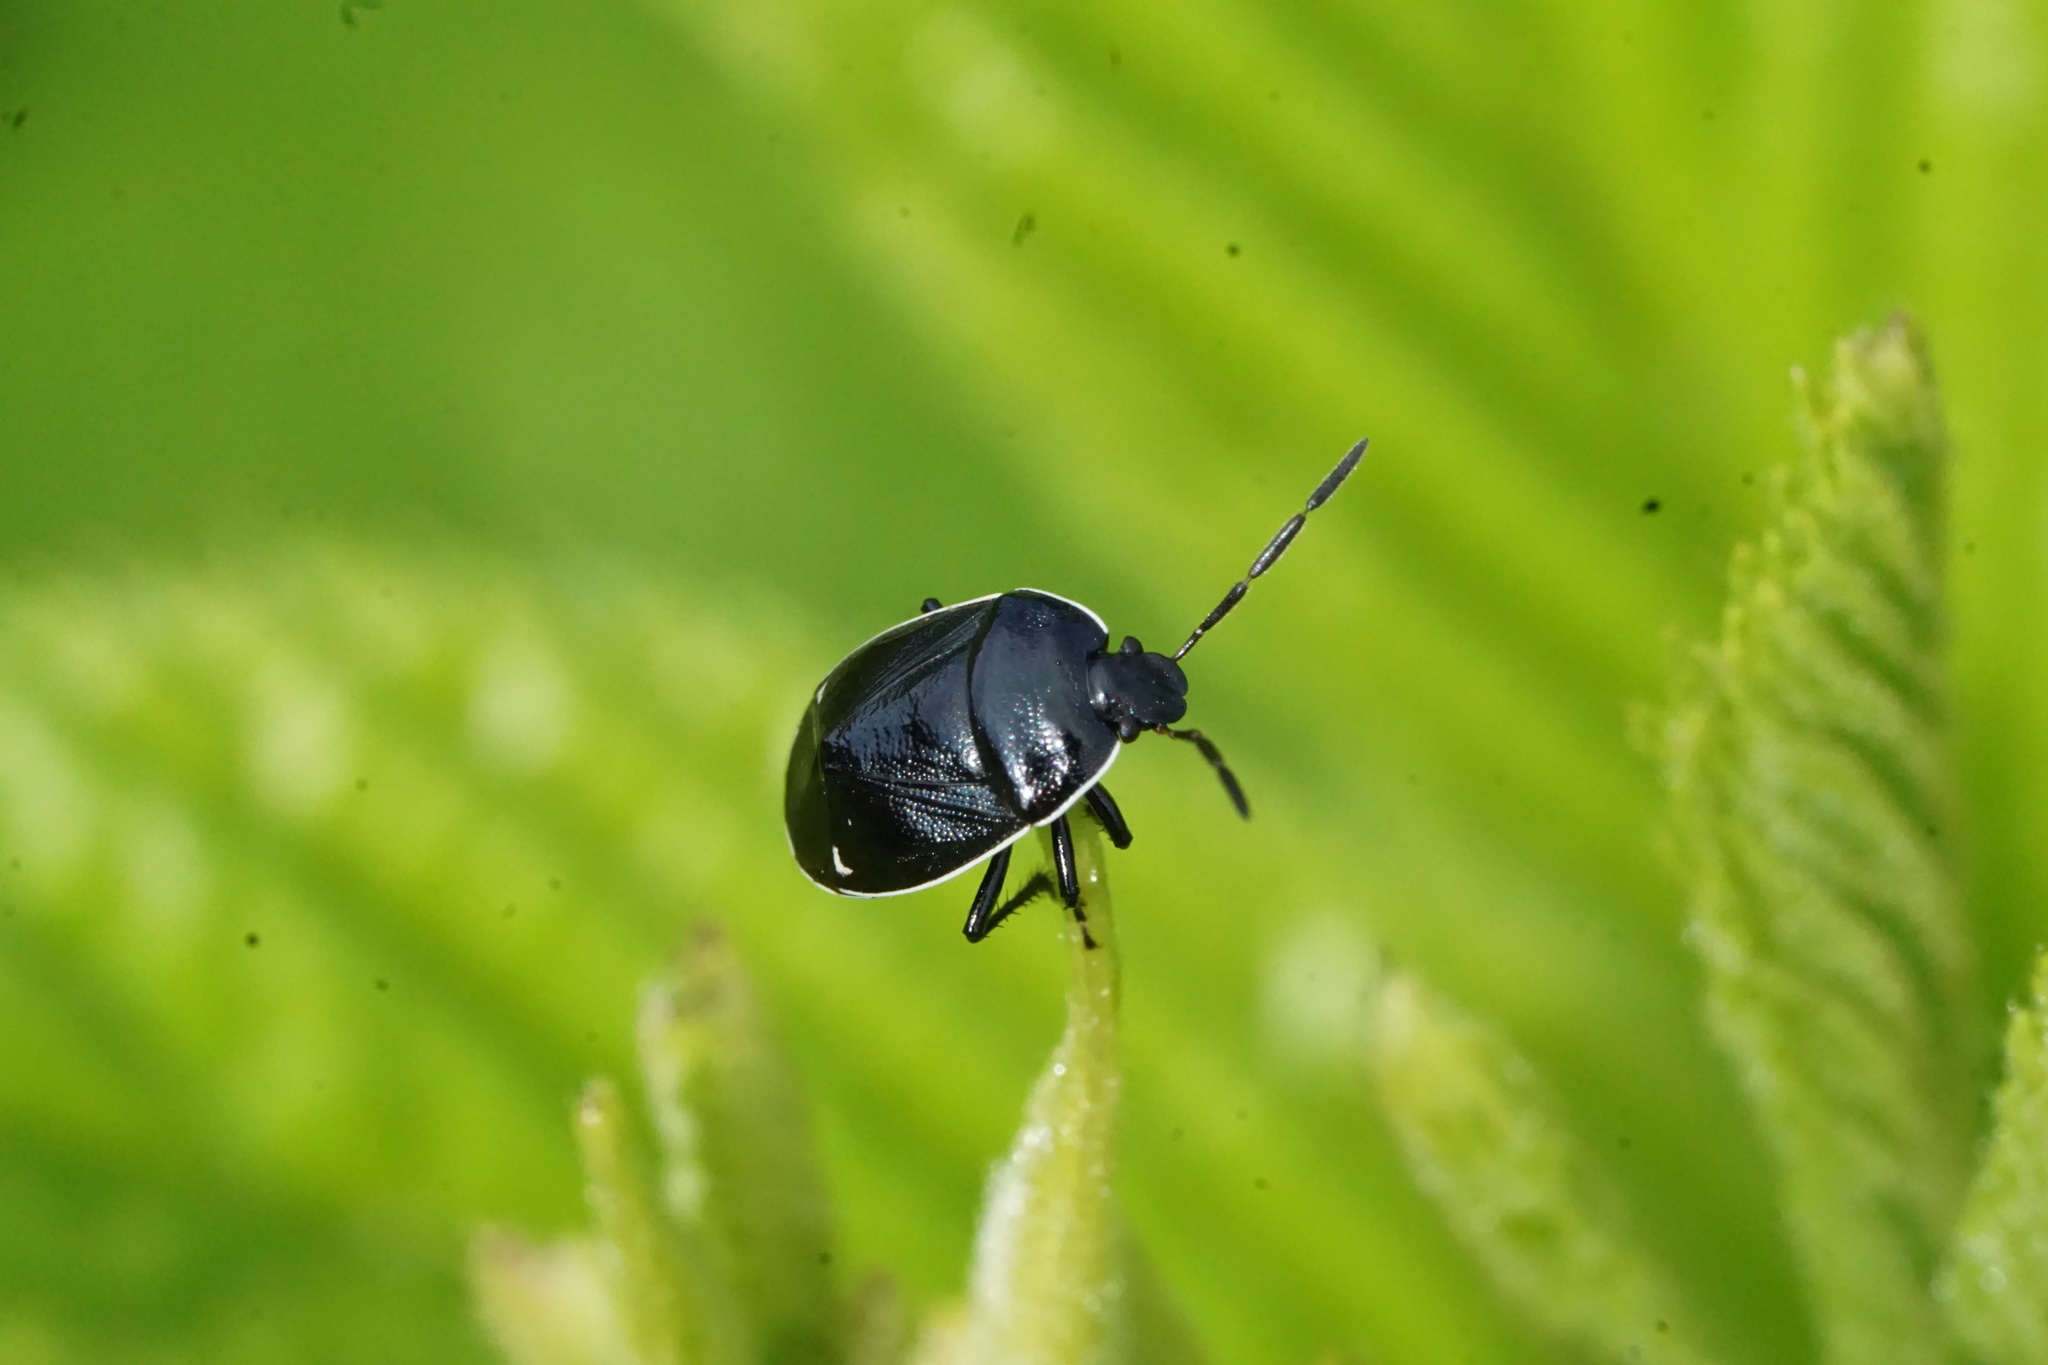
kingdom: Animalia
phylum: Arthropoda
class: Insecta
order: Hemiptera
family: Cydnidae
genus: Sehirus
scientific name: Sehirus cinctus
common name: White-margined burrower bug
